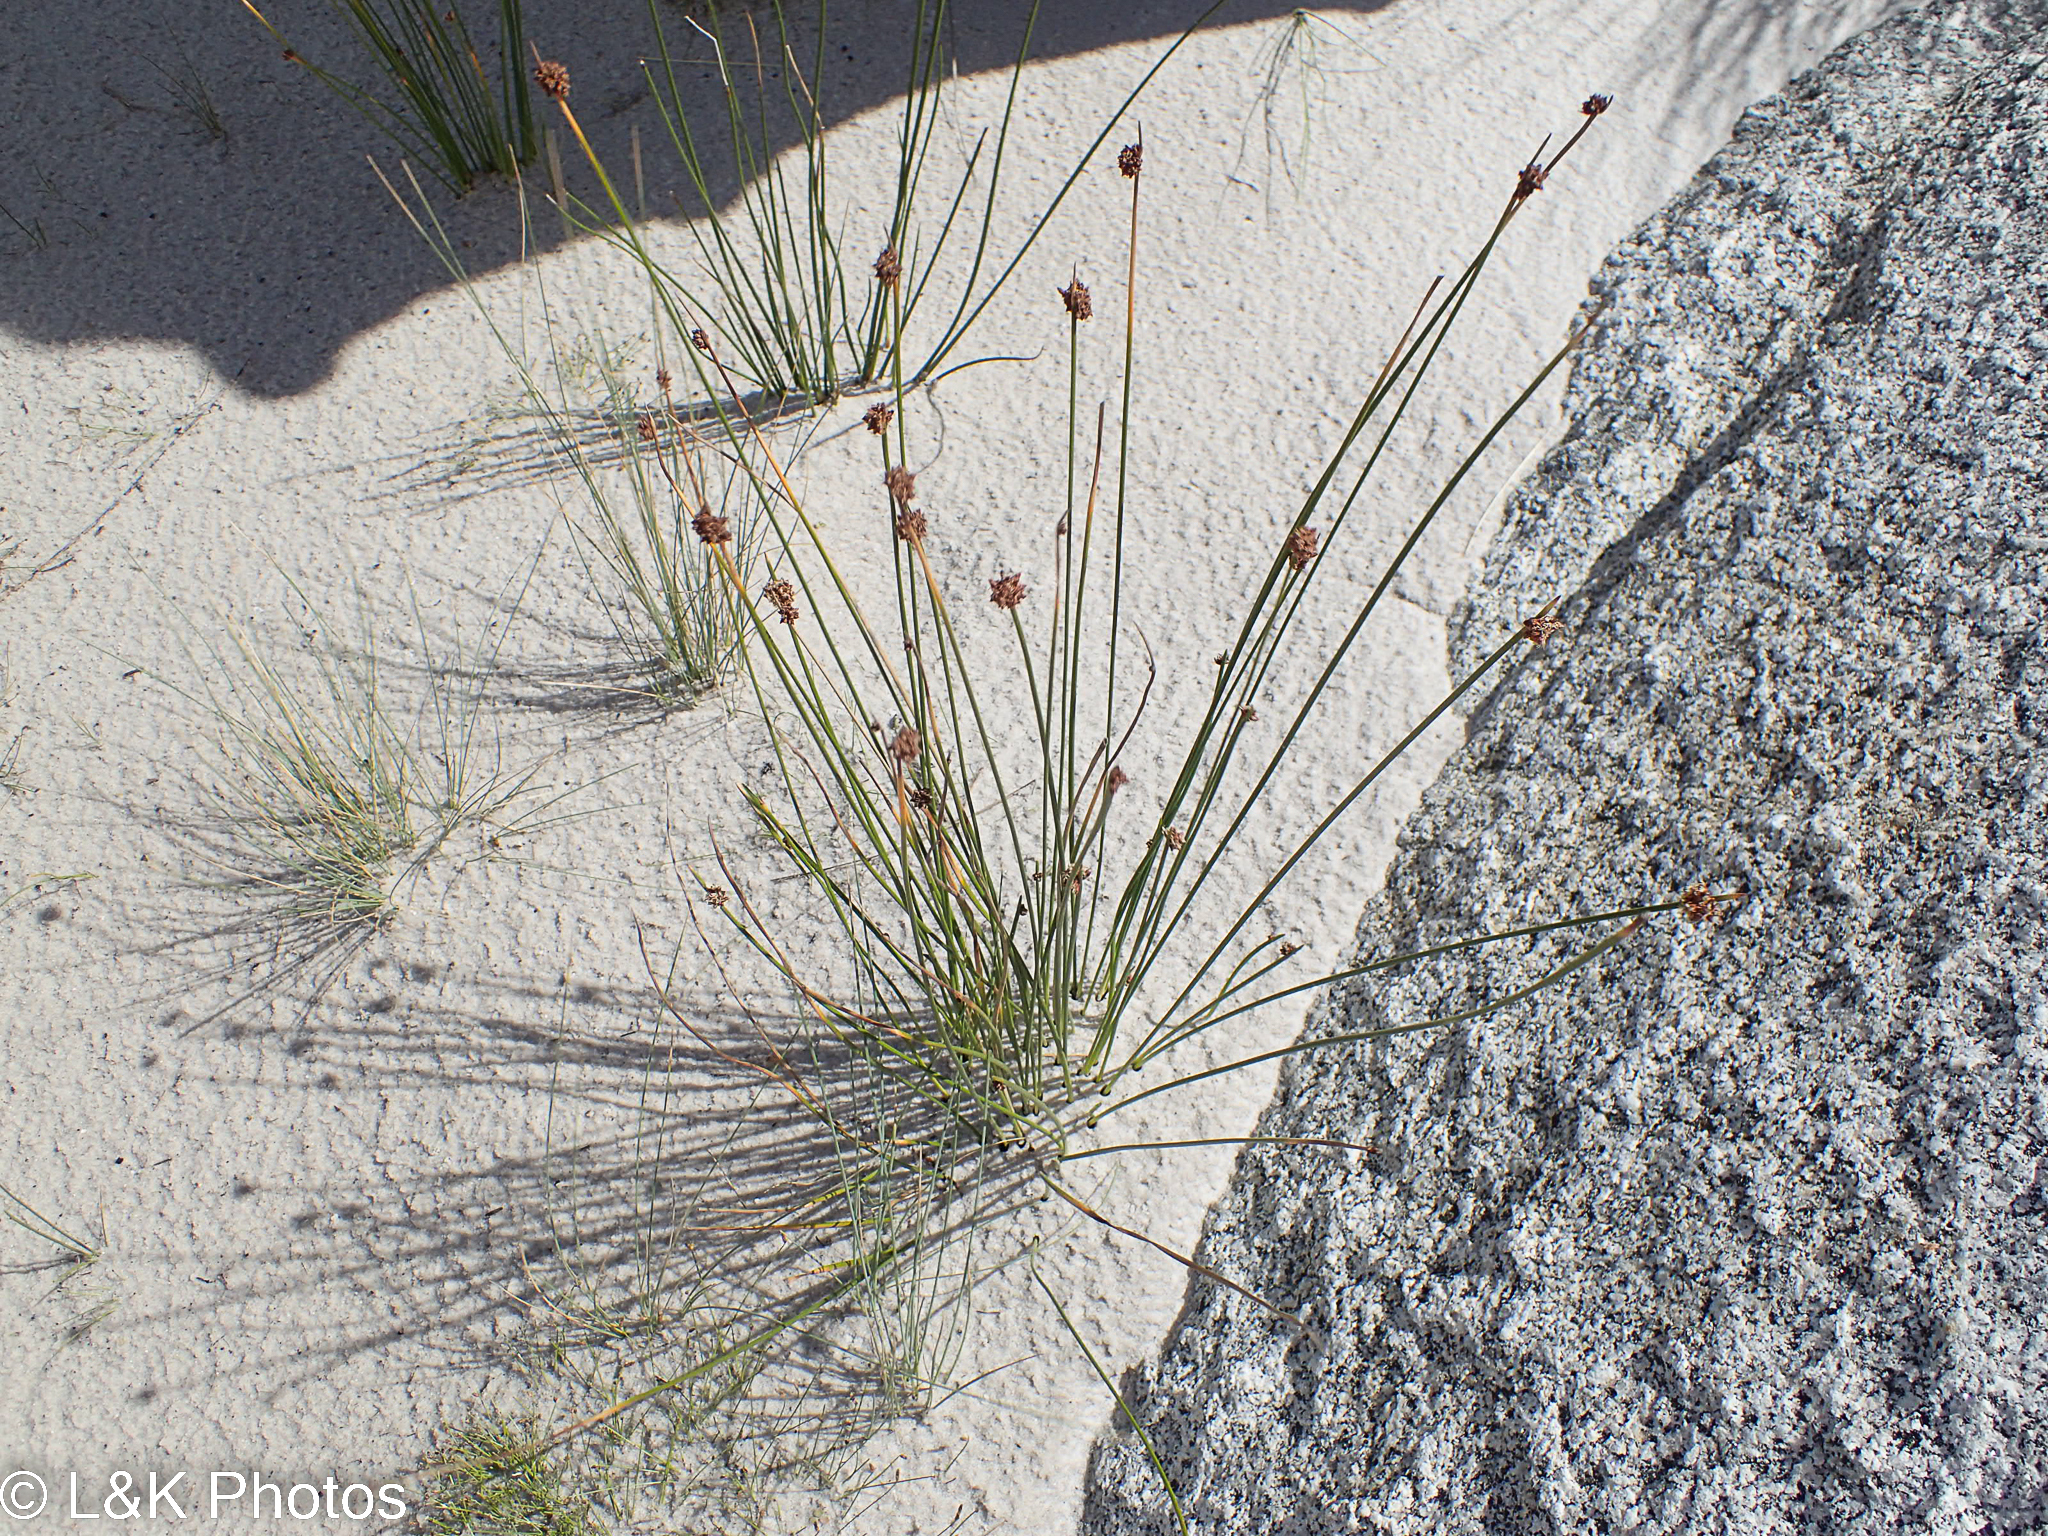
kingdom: Plantae
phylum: Tracheophyta
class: Liliopsida
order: Poales
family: Cyperaceae
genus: Ficinia
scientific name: Ficinia nodosa
